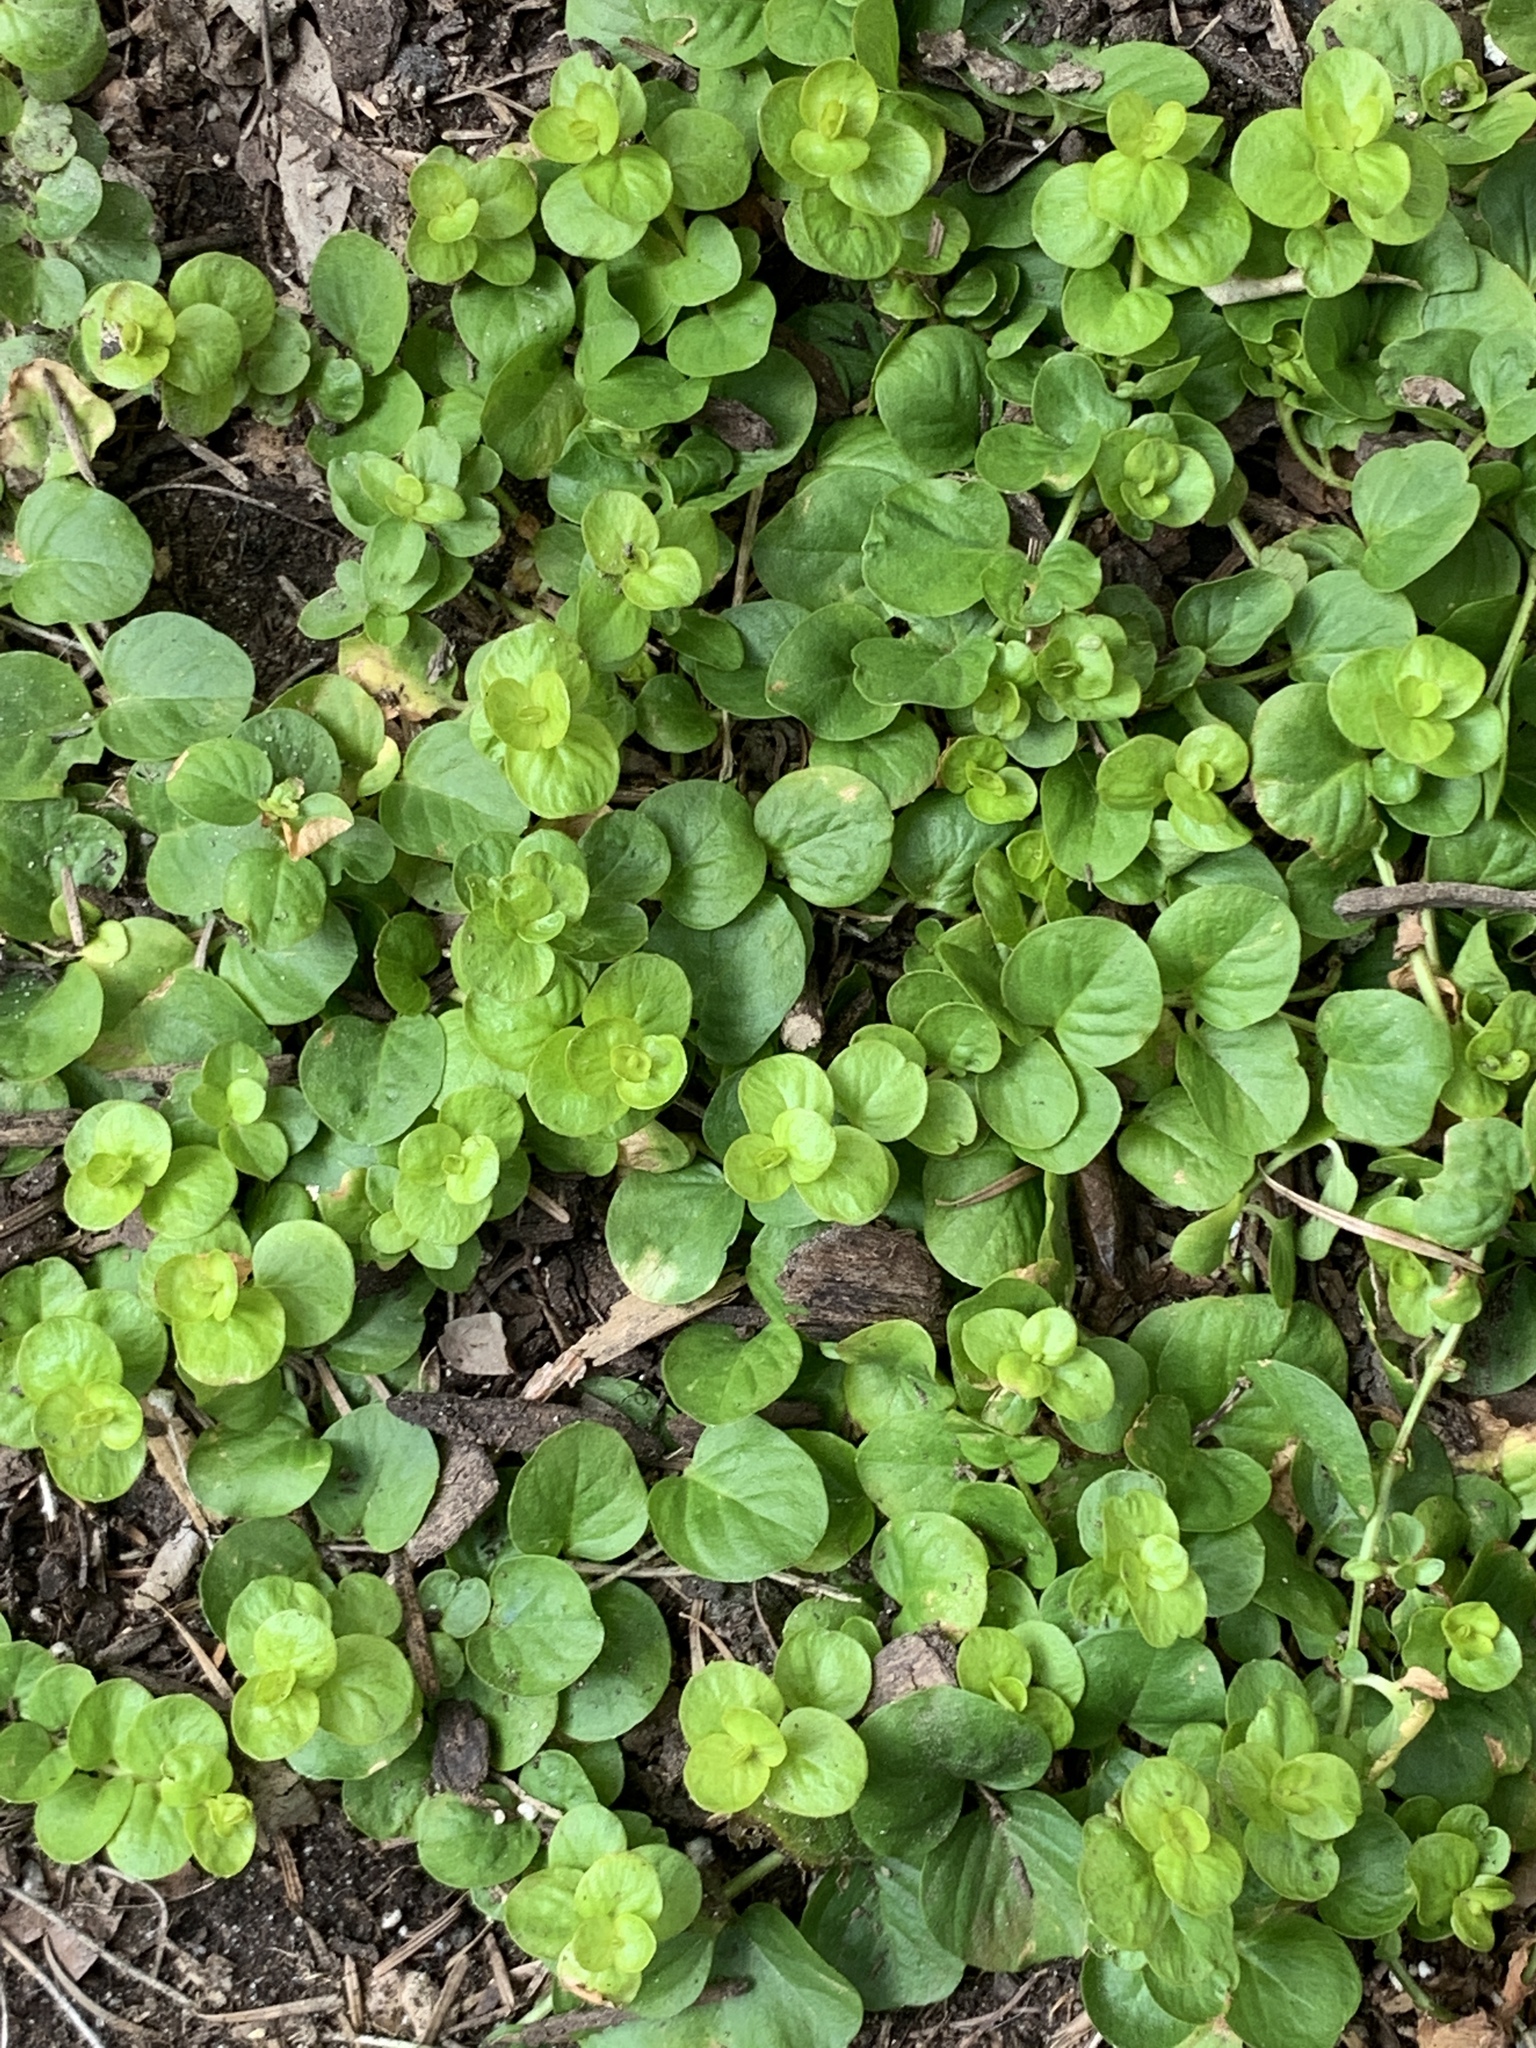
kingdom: Plantae
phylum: Tracheophyta
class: Magnoliopsida
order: Ericales
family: Primulaceae
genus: Lysimachia
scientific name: Lysimachia nummularia
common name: Moneywort
